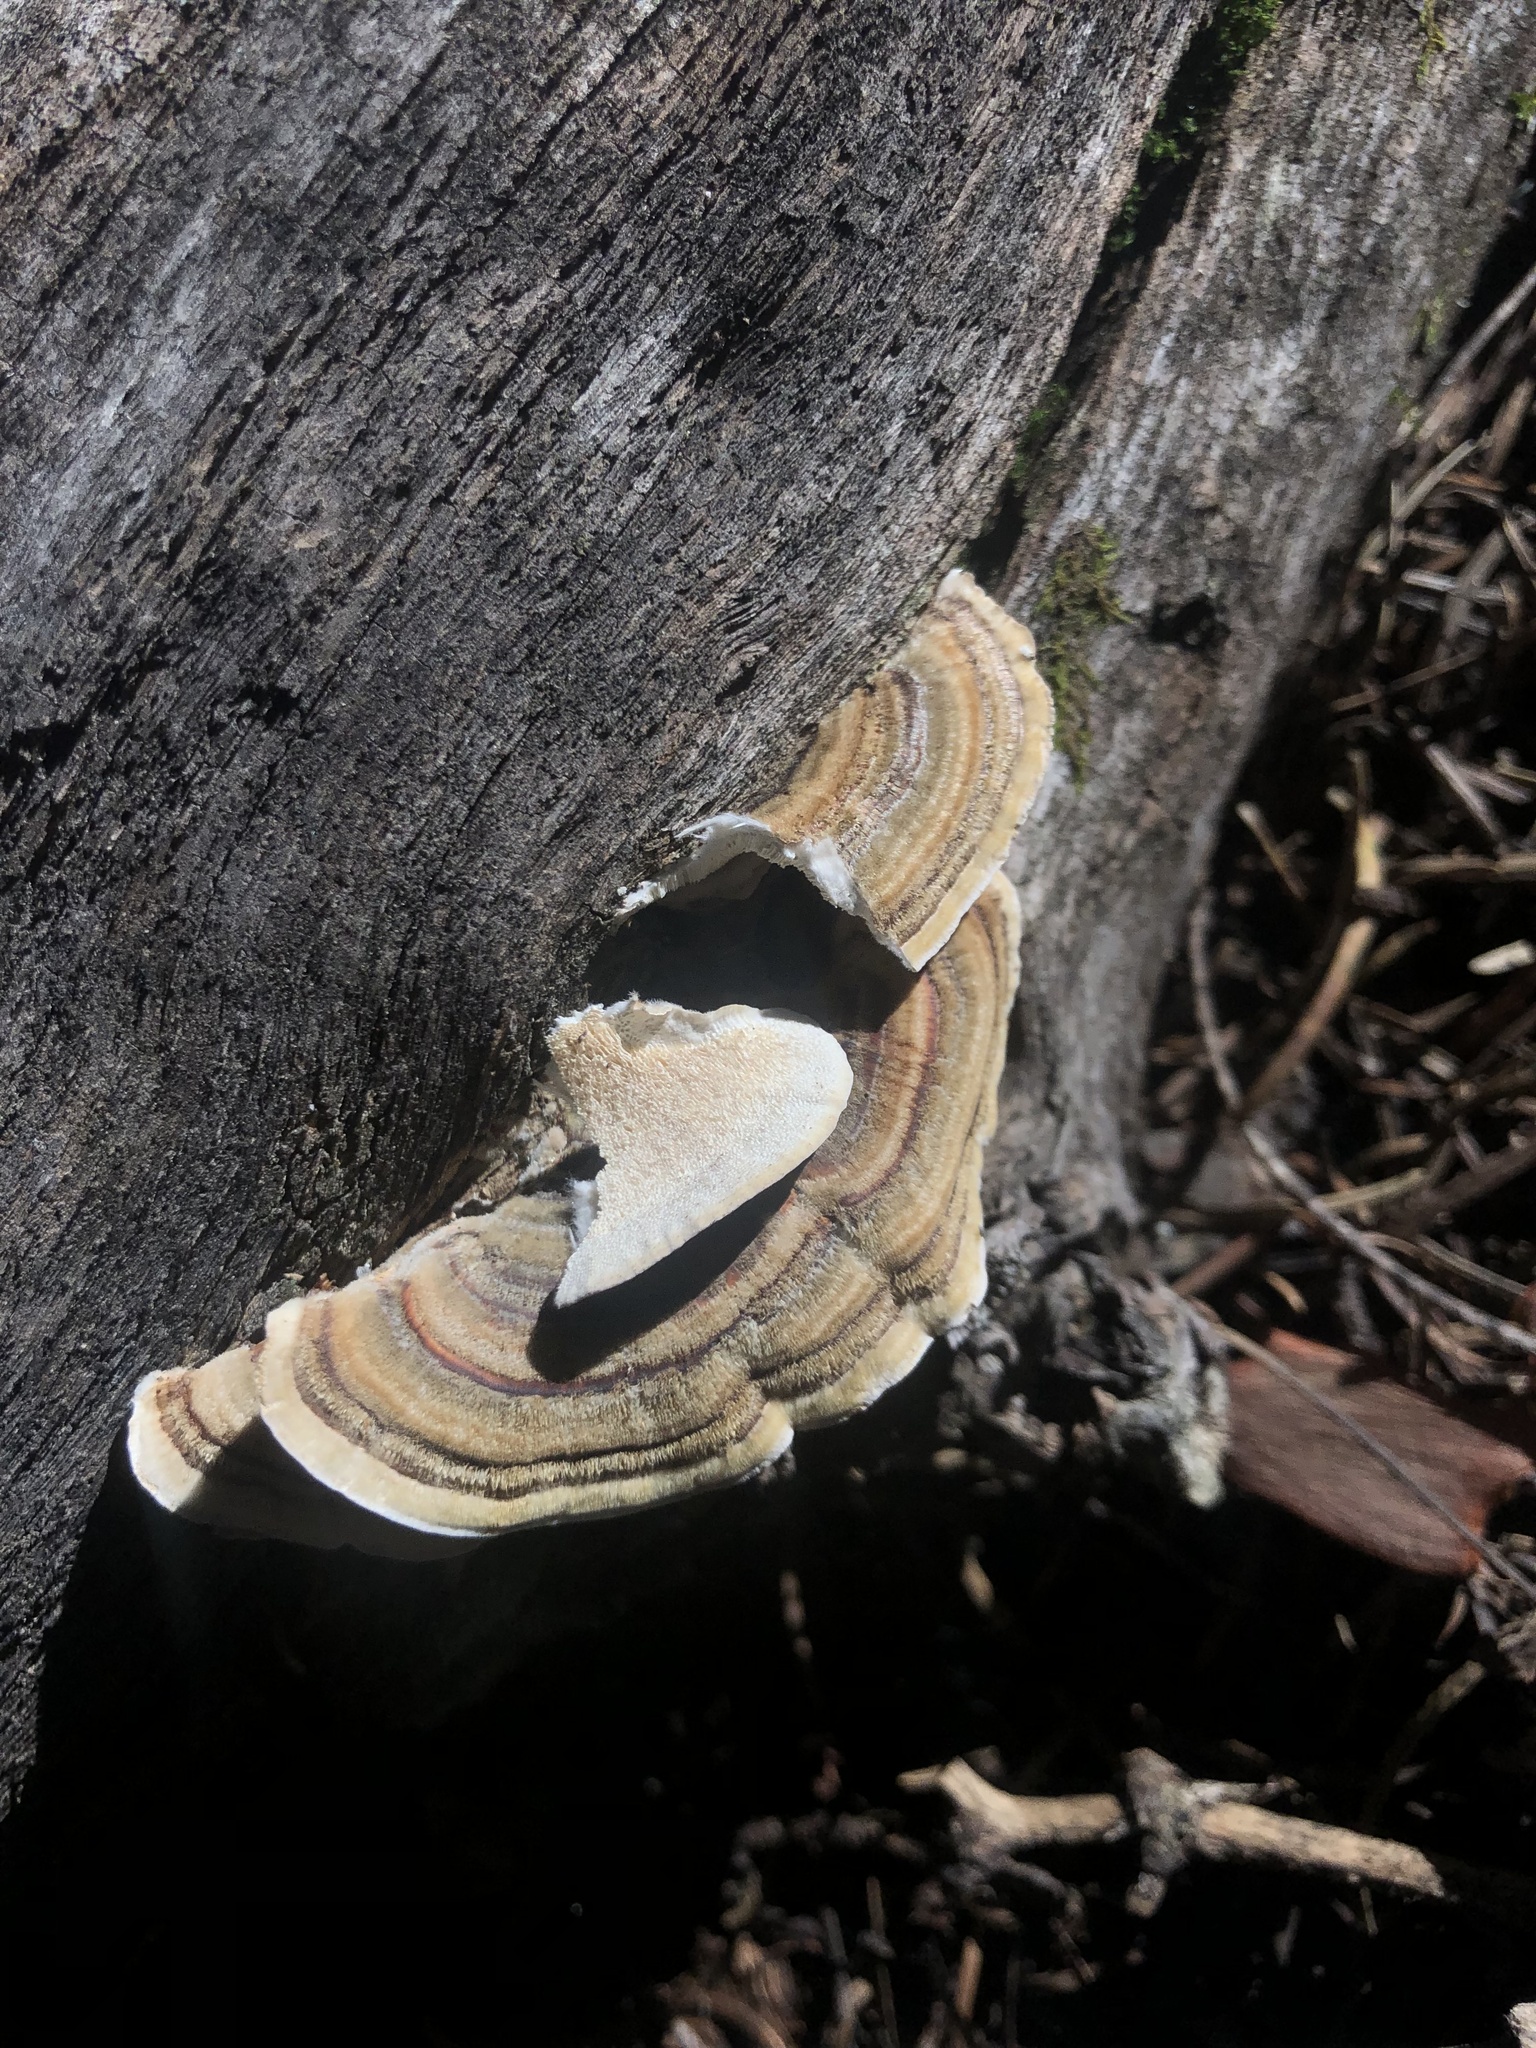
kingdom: Fungi
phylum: Basidiomycota
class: Agaricomycetes
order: Polyporales
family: Polyporaceae
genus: Trametes
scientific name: Trametes versicolor
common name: Turkeytail
